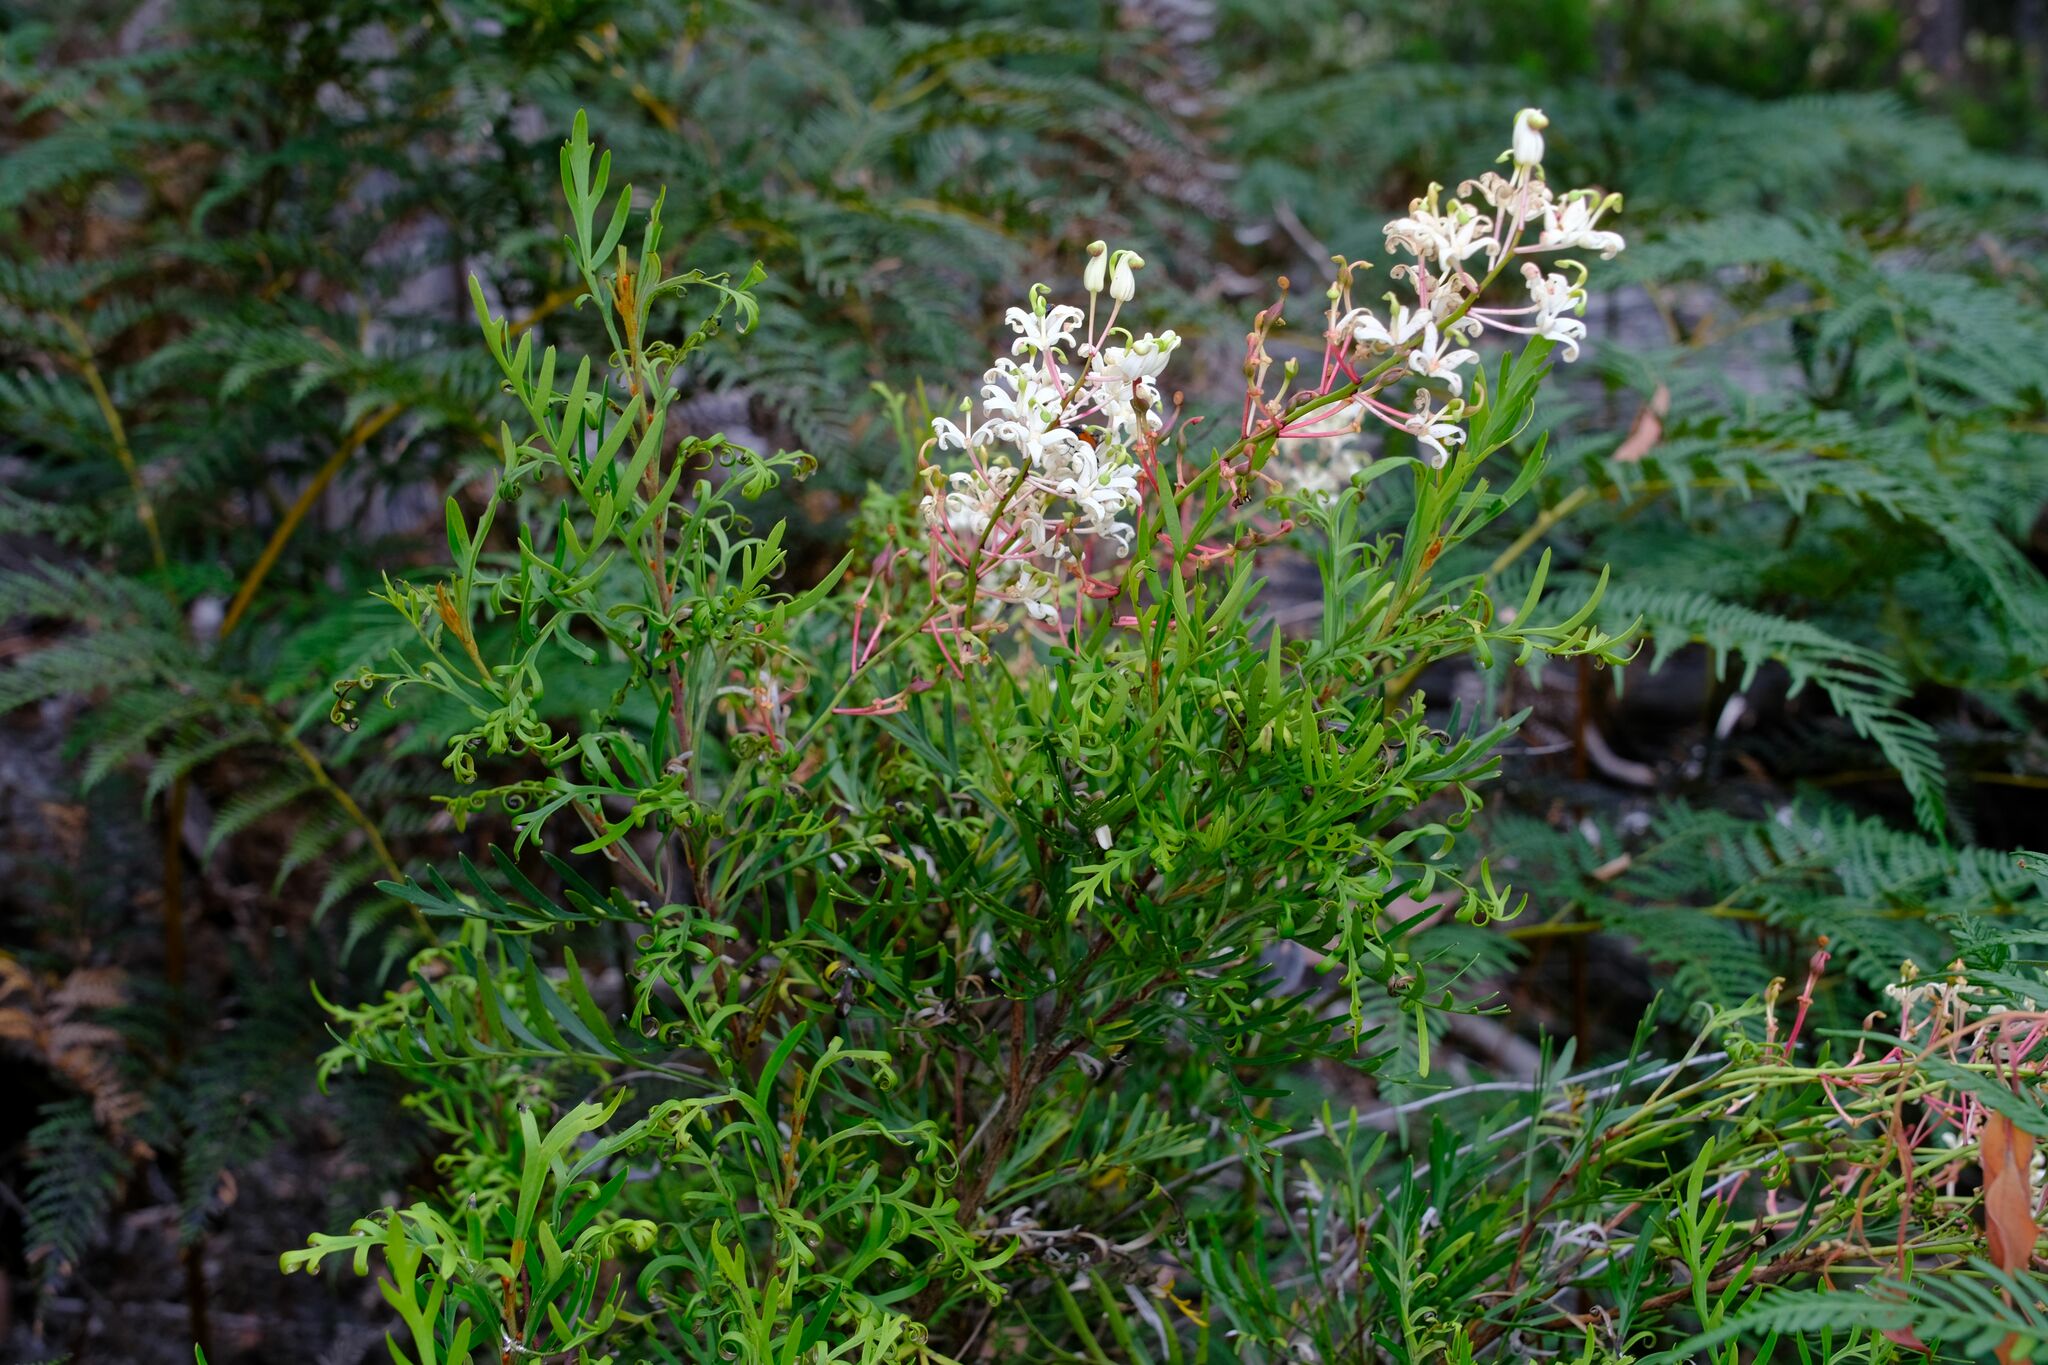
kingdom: Plantae
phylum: Tracheophyta
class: Magnoliopsida
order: Proteales
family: Proteaceae
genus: Lomatia
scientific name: Lomatia tinctoria
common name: Guitar plant
